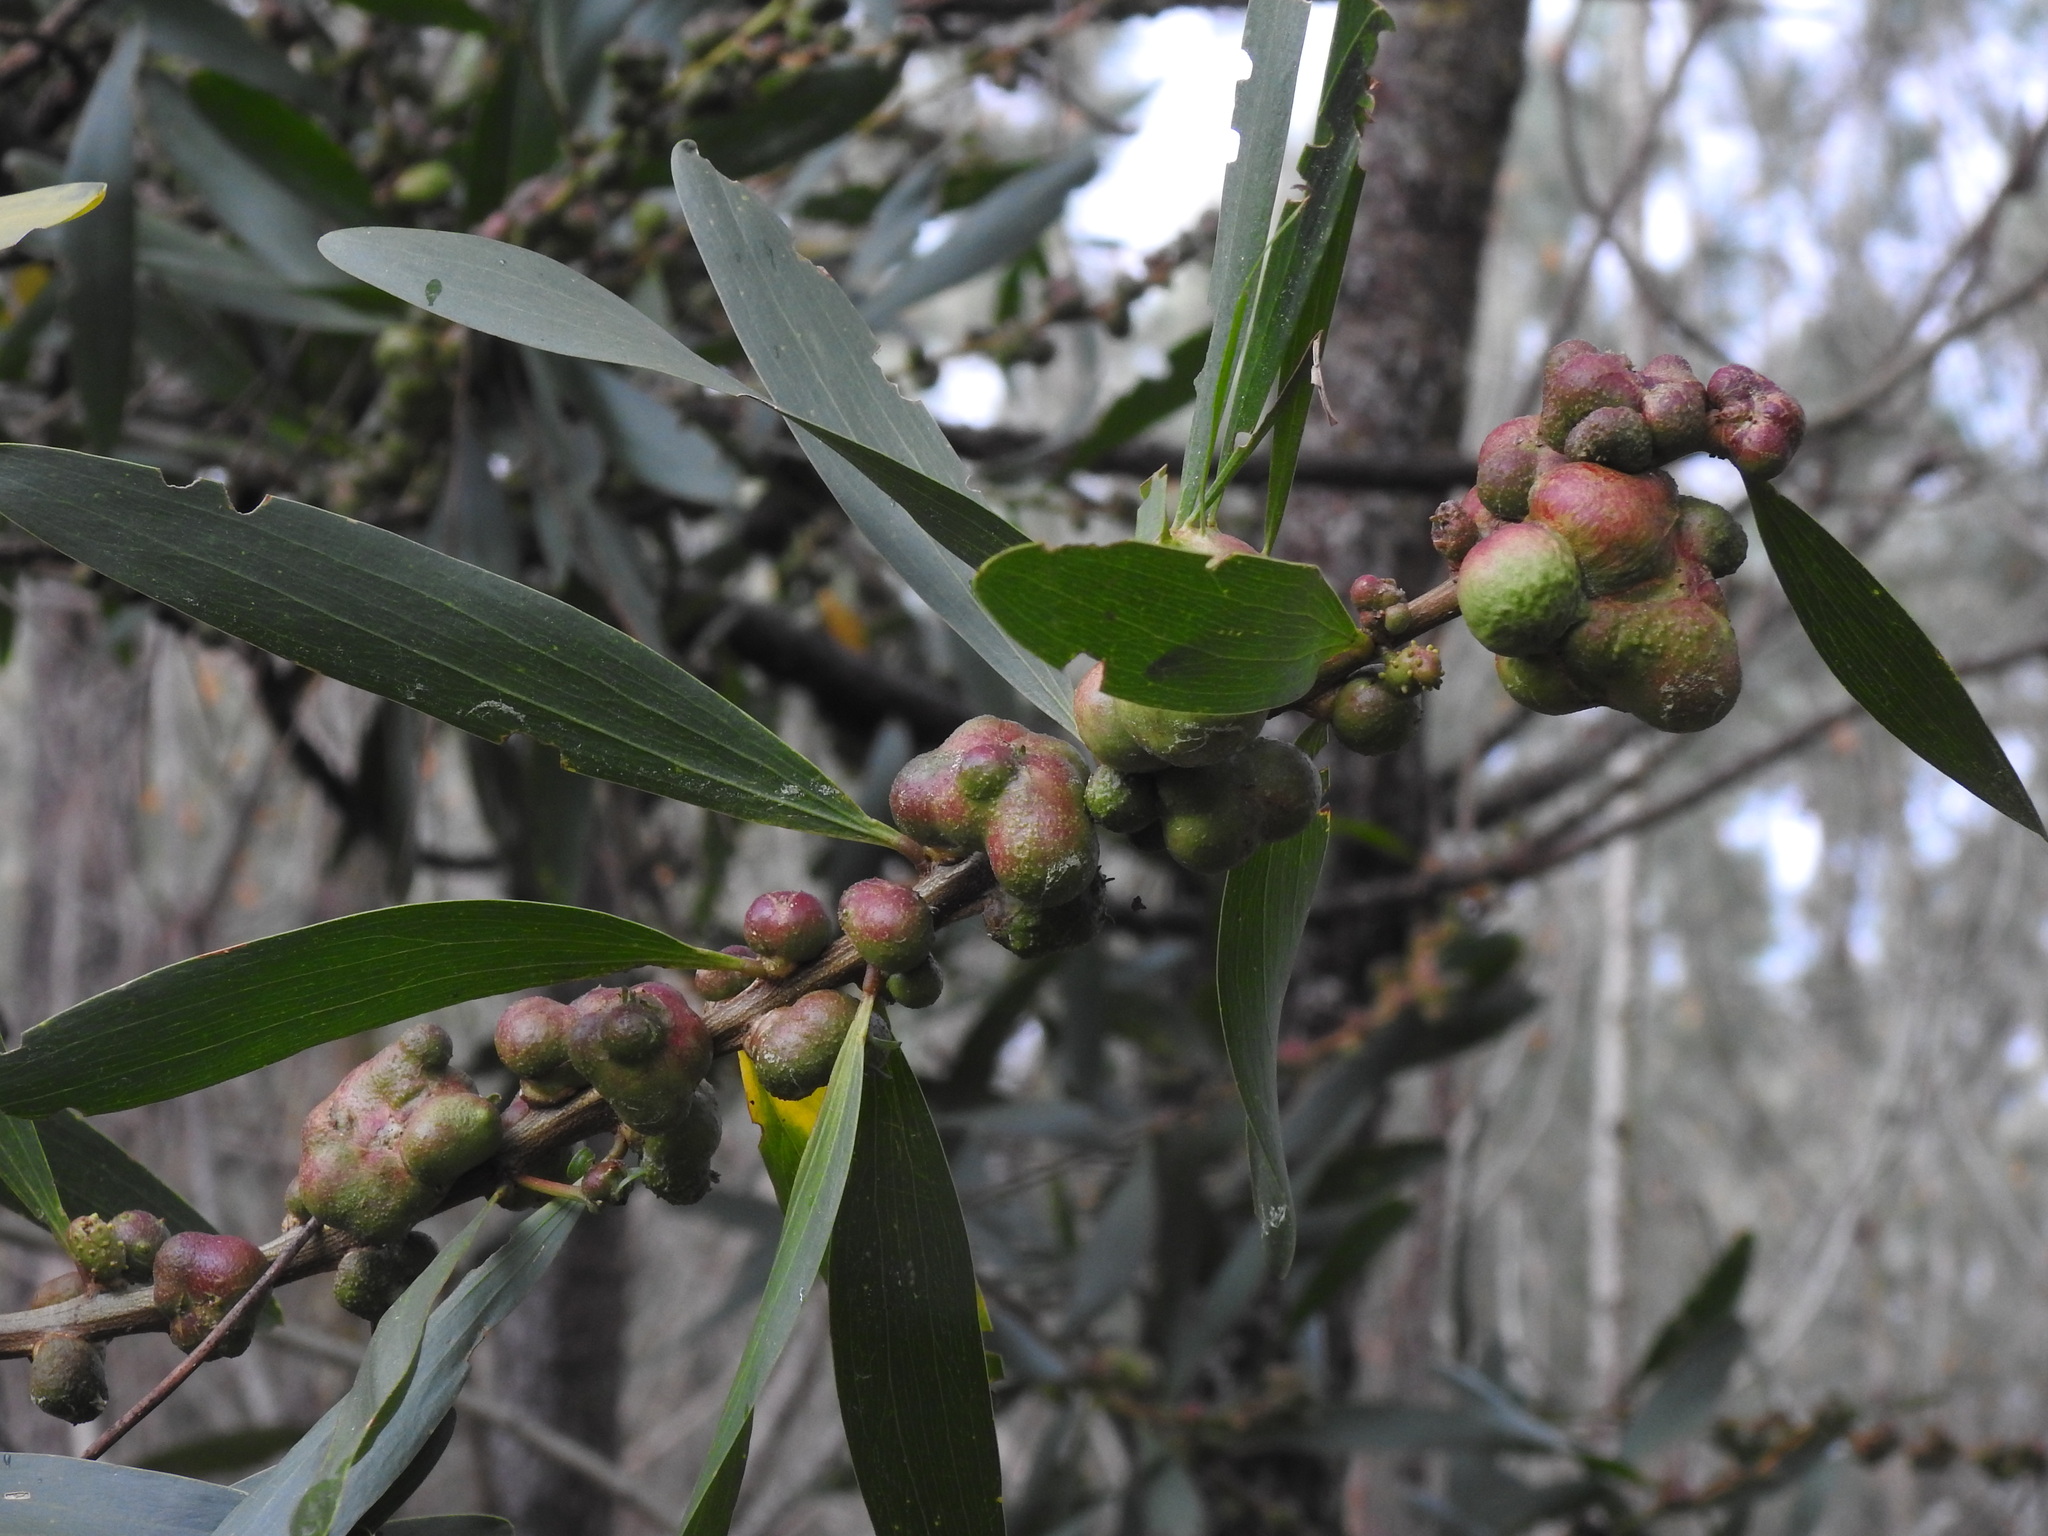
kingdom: Animalia
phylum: Arthropoda
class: Insecta
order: Hymenoptera
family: Pteromalidae
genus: Trichilogaster
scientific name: Trichilogaster acaciaelongifoliae
